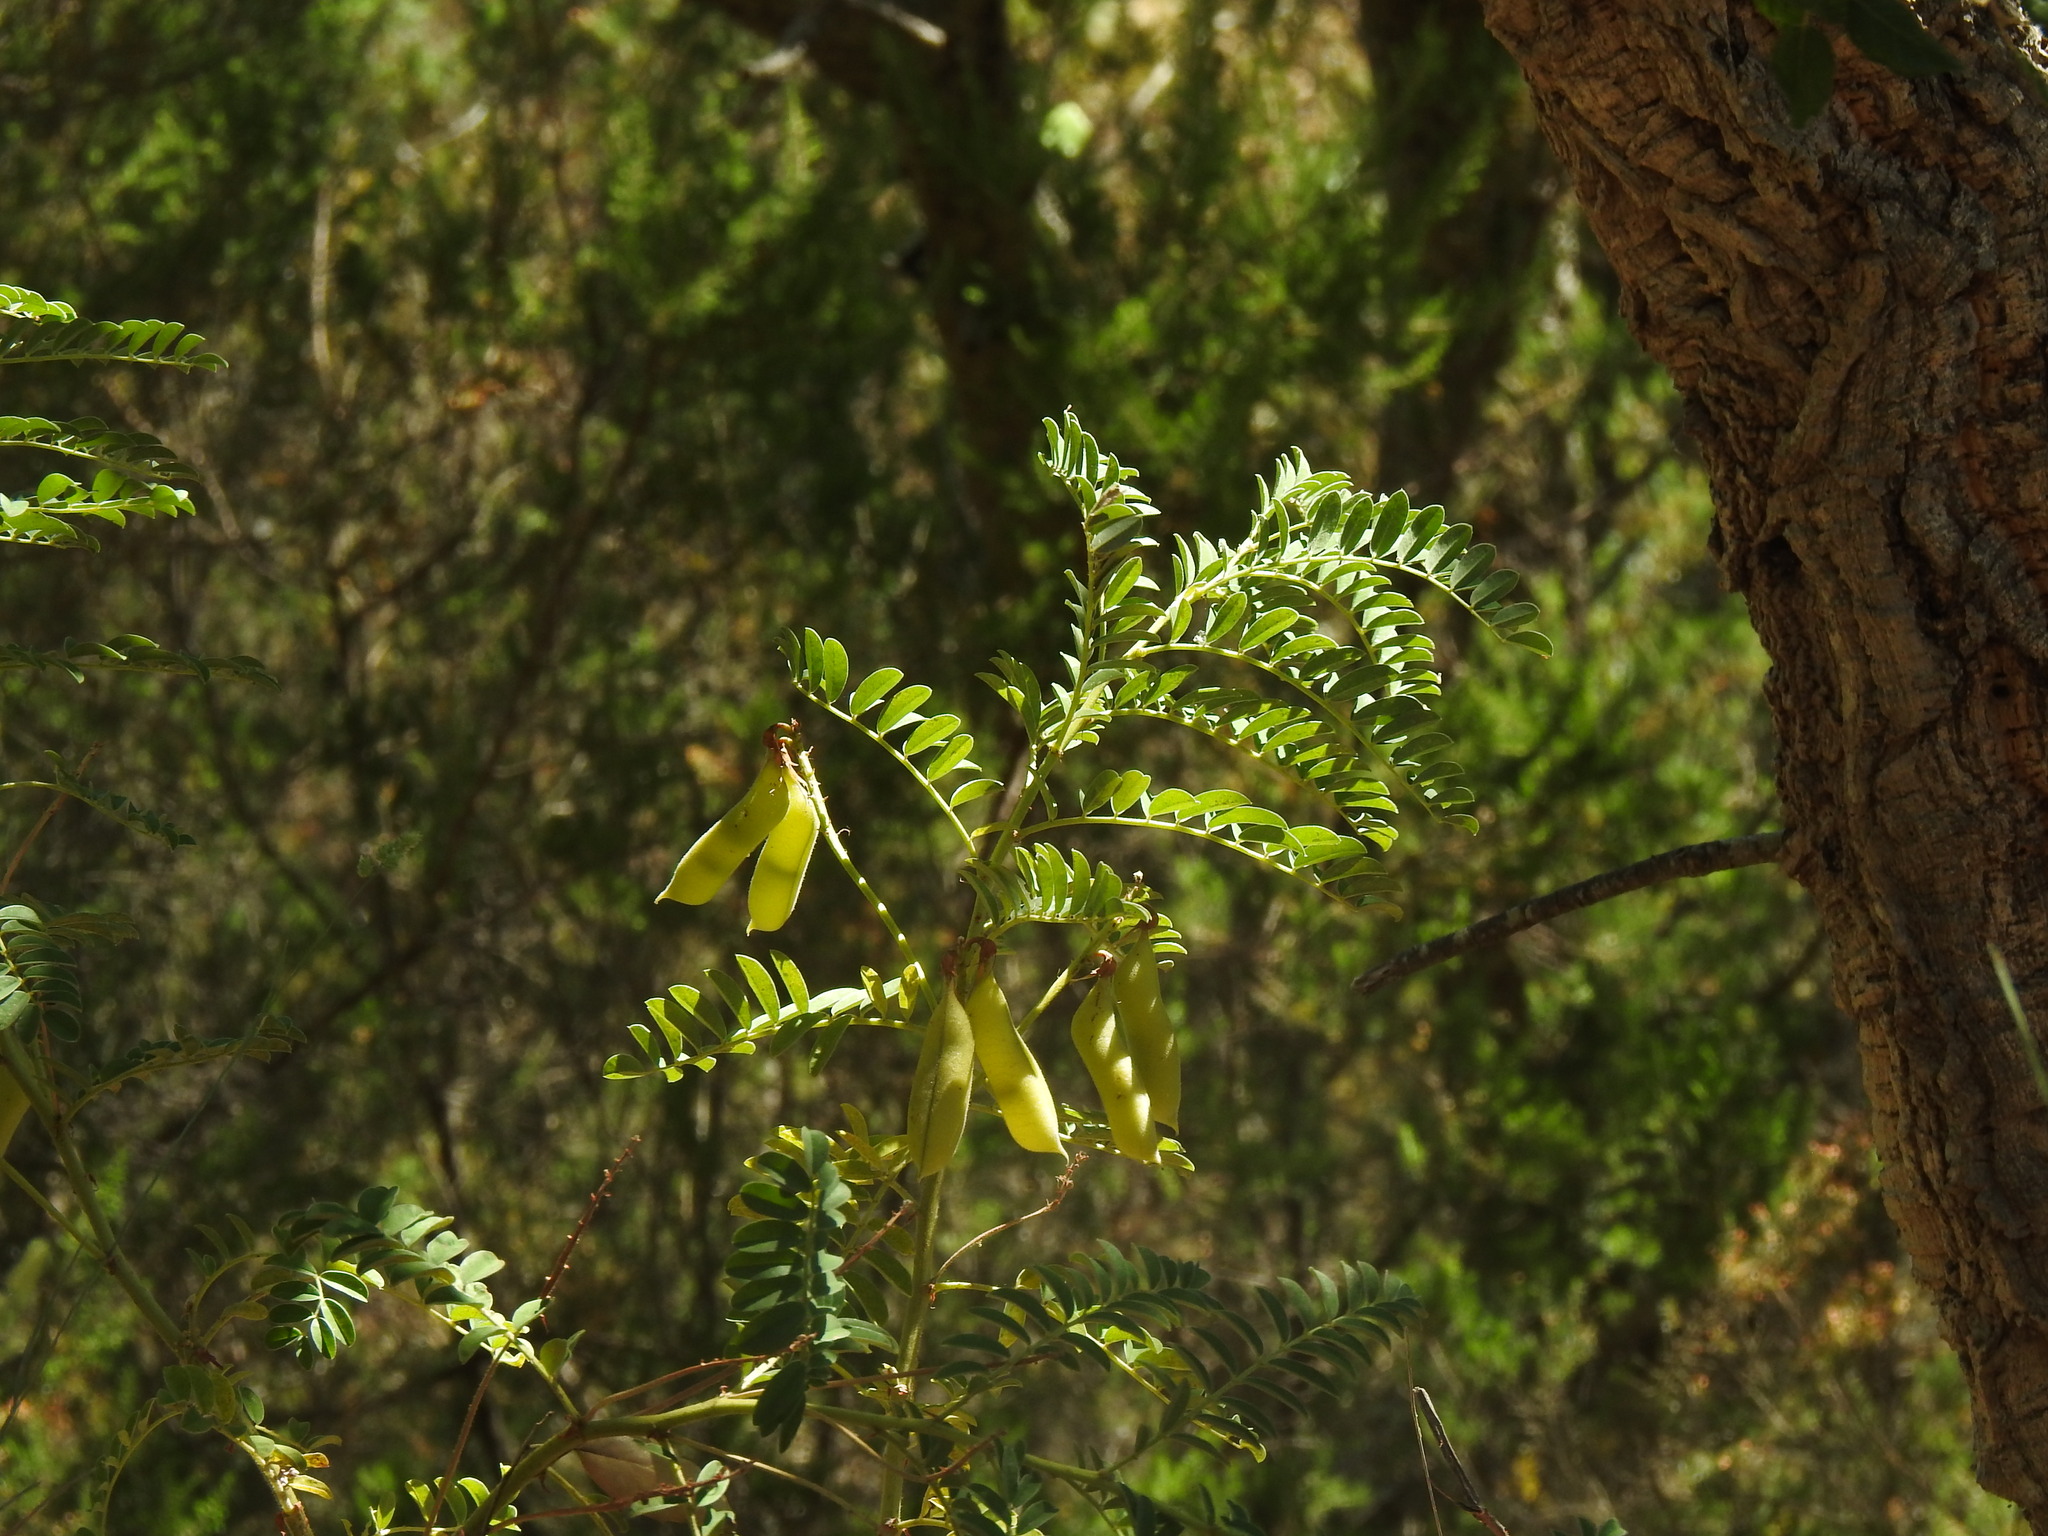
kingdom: Plantae
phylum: Tracheophyta
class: Magnoliopsida
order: Fabales
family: Fabaceae
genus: Erophaca
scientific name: Erophaca baetica
